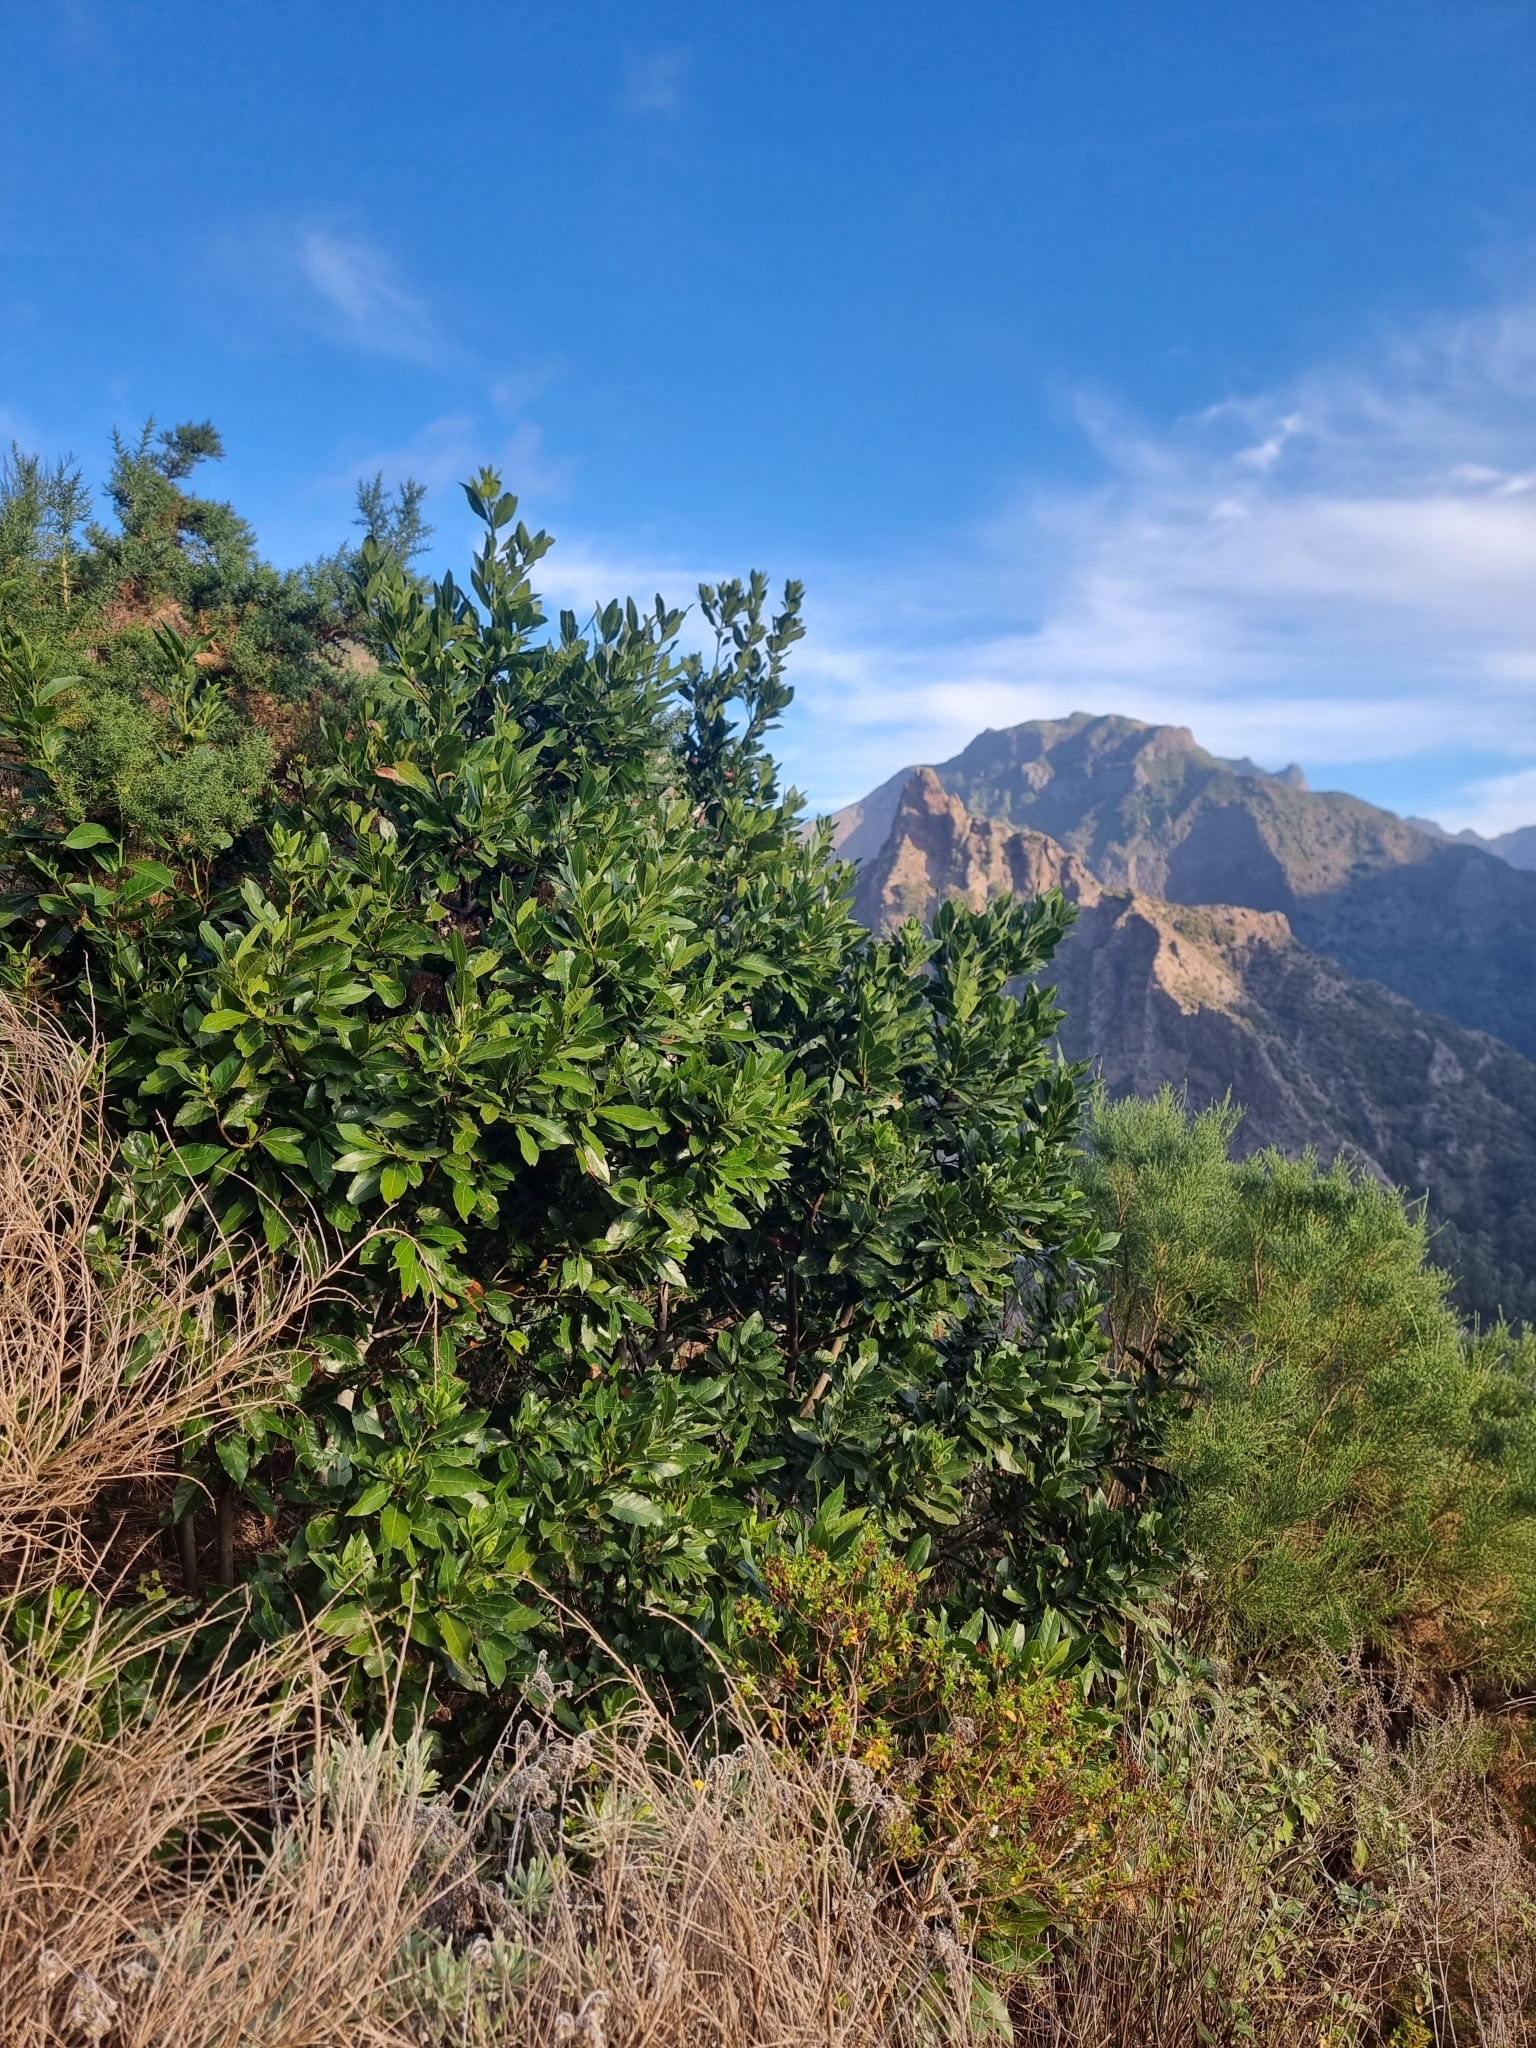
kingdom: Plantae
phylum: Tracheophyta
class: Magnoliopsida
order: Laurales
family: Lauraceae
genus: Laurus
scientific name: Laurus novocanariensis
